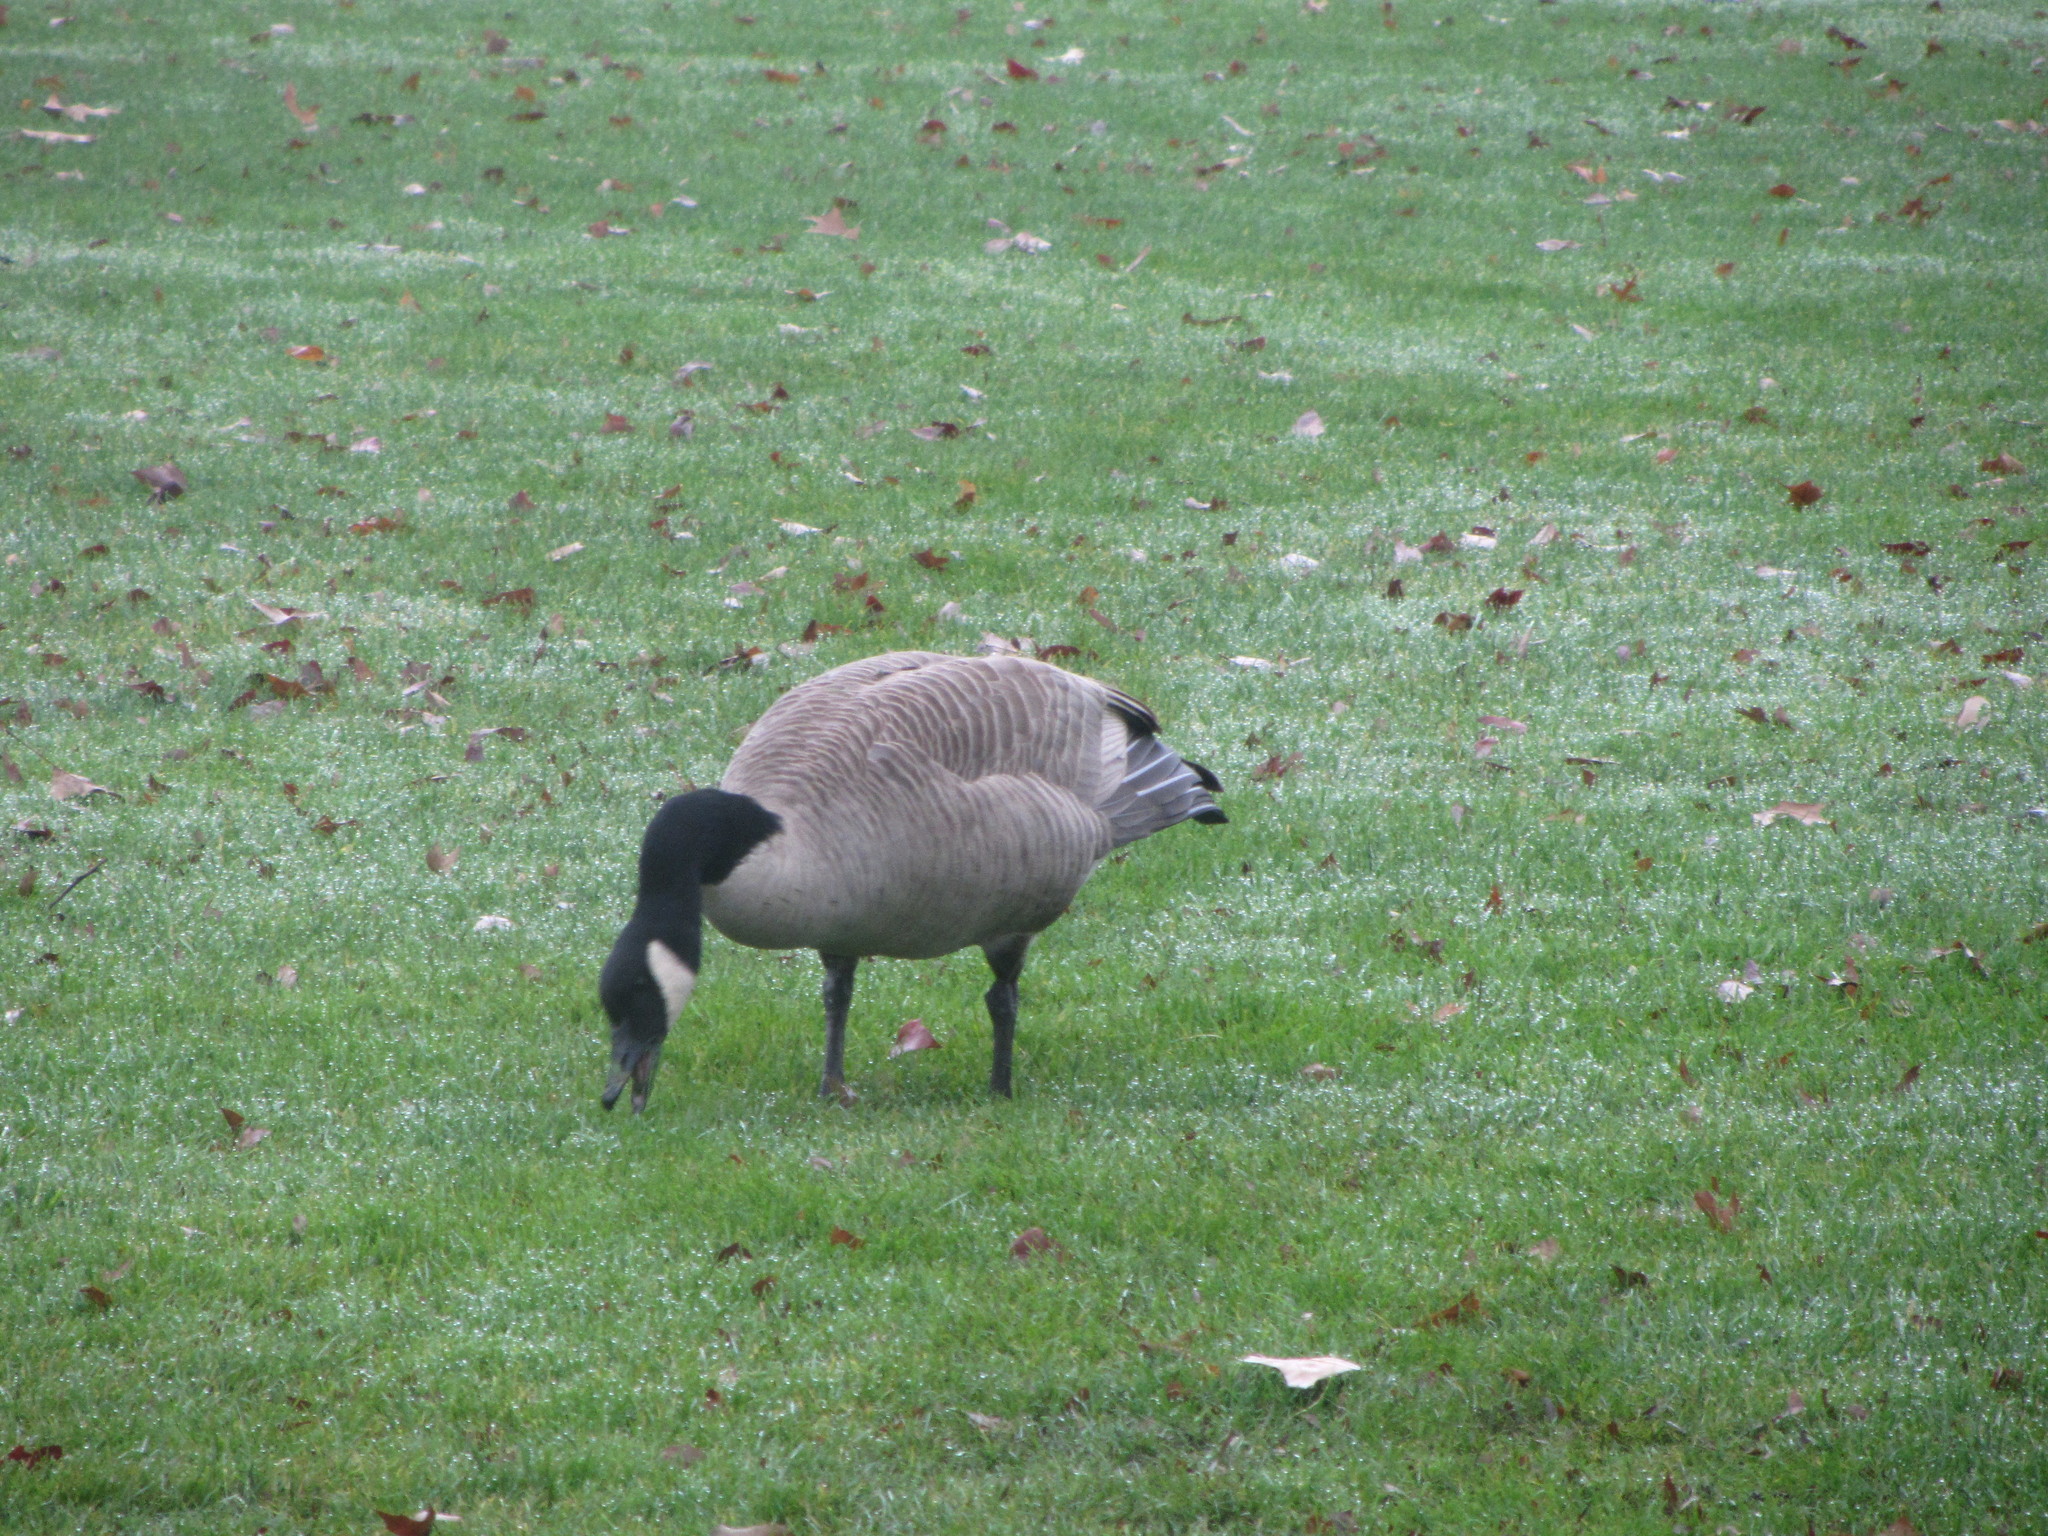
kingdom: Animalia
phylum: Chordata
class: Aves
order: Anseriformes
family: Anatidae
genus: Branta
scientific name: Branta canadensis
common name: Canada goose
